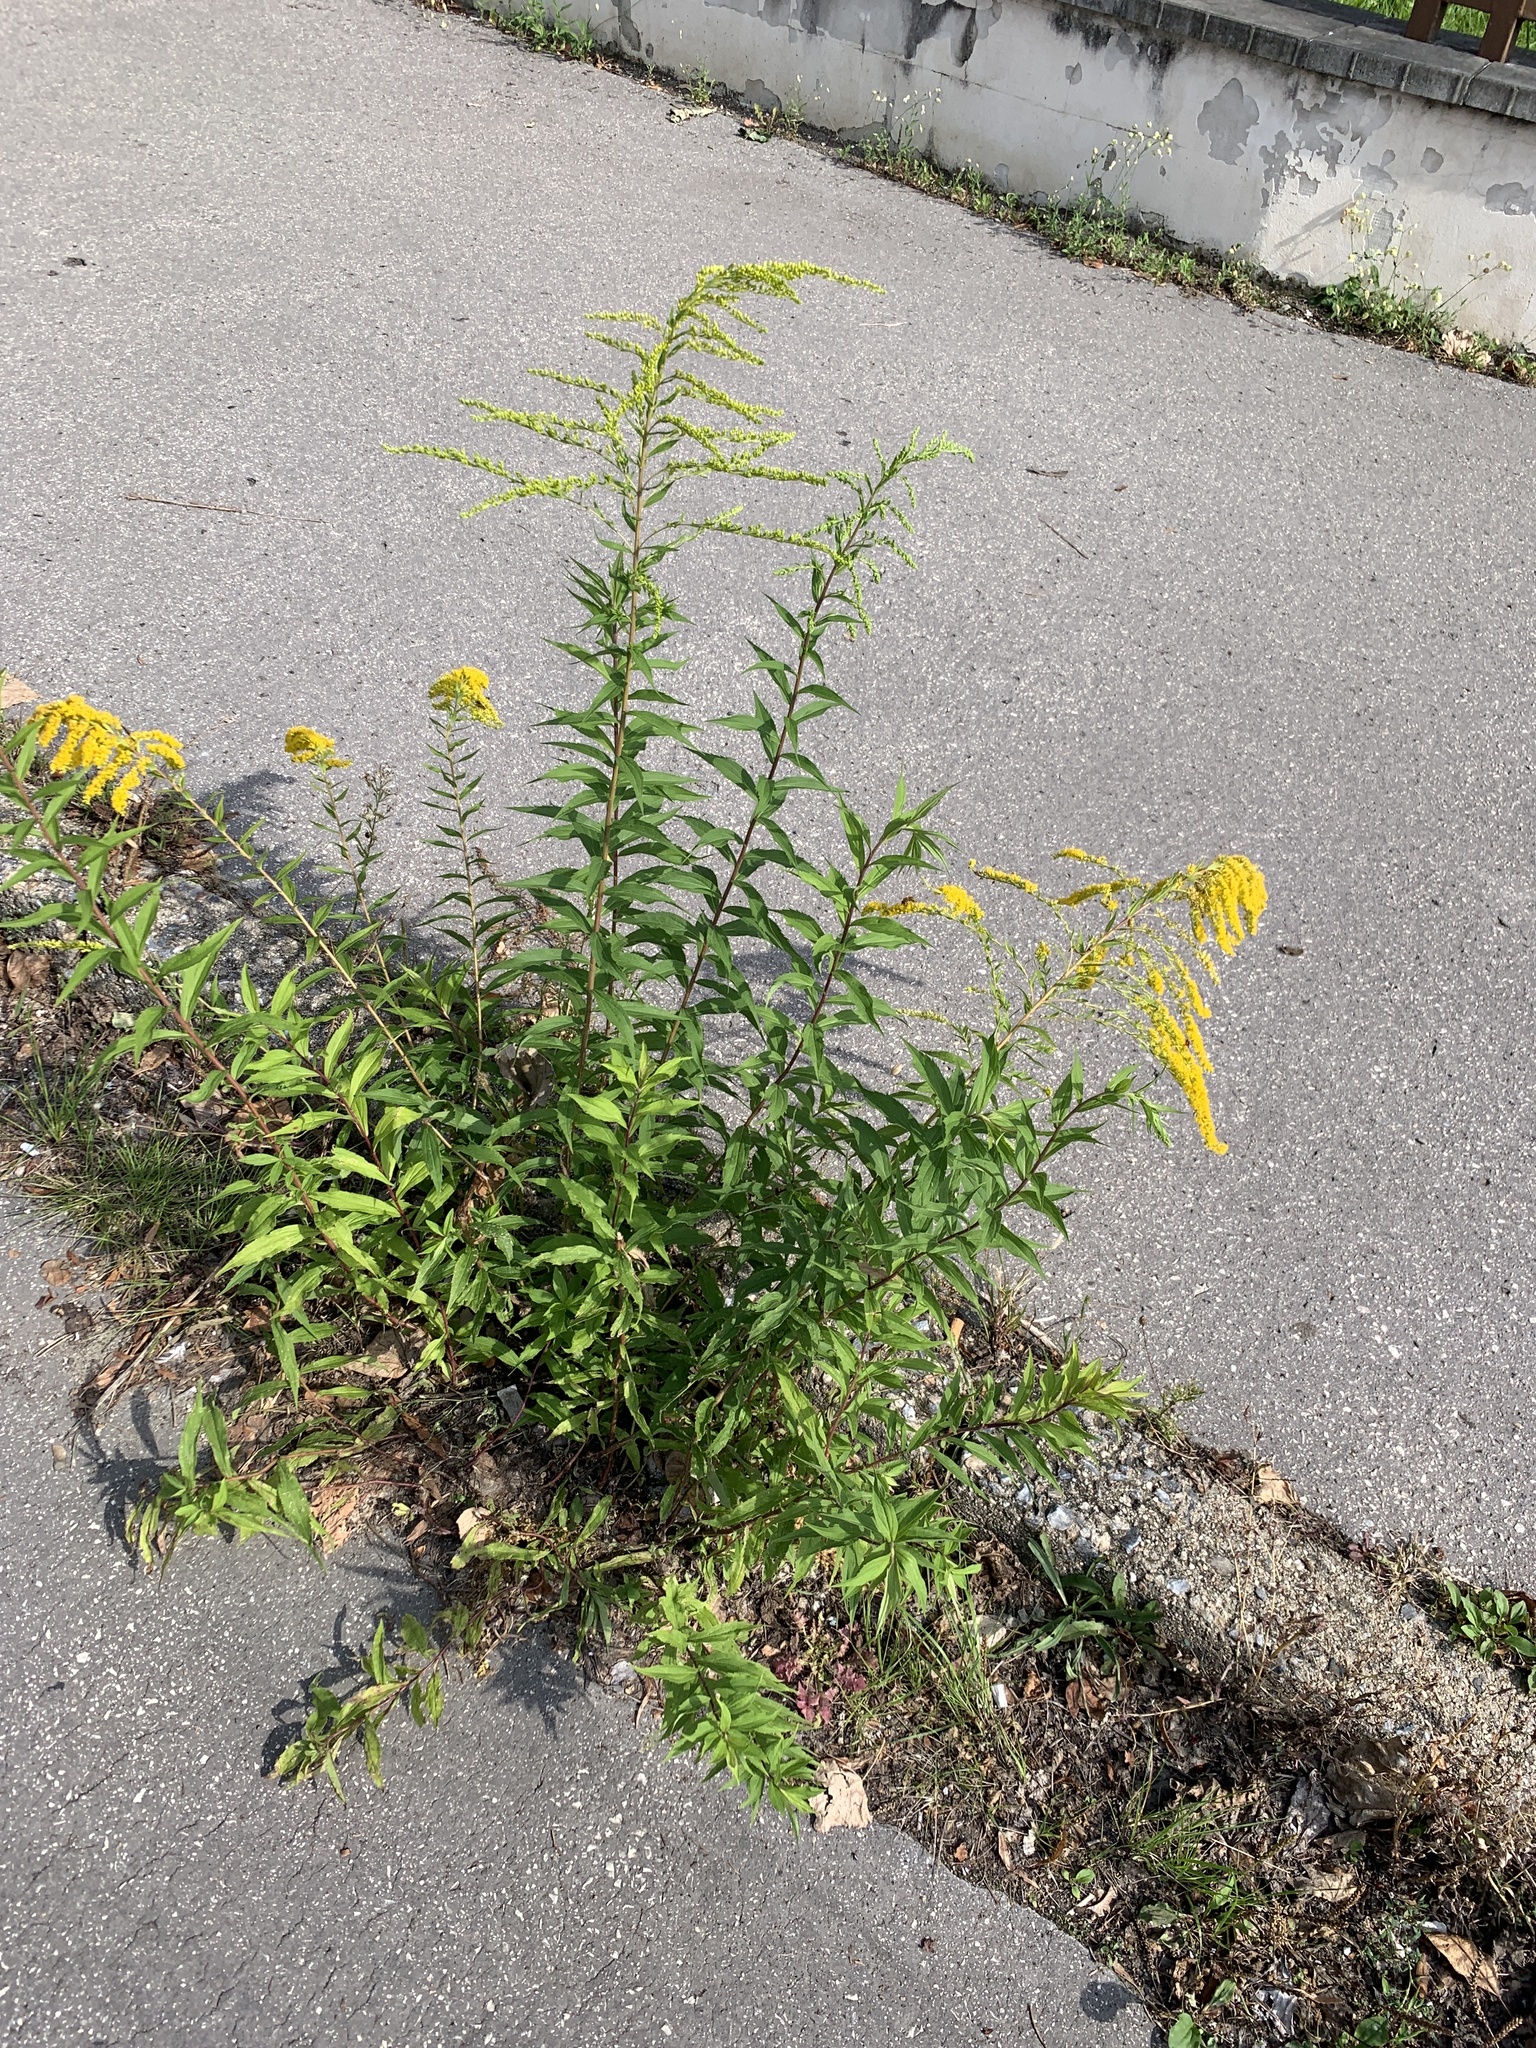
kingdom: Plantae
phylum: Tracheophyta
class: Magnoliopsida
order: Asterales
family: Asteraceae
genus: Solidago
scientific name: Solidago canadensis
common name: Canada goldenrod
